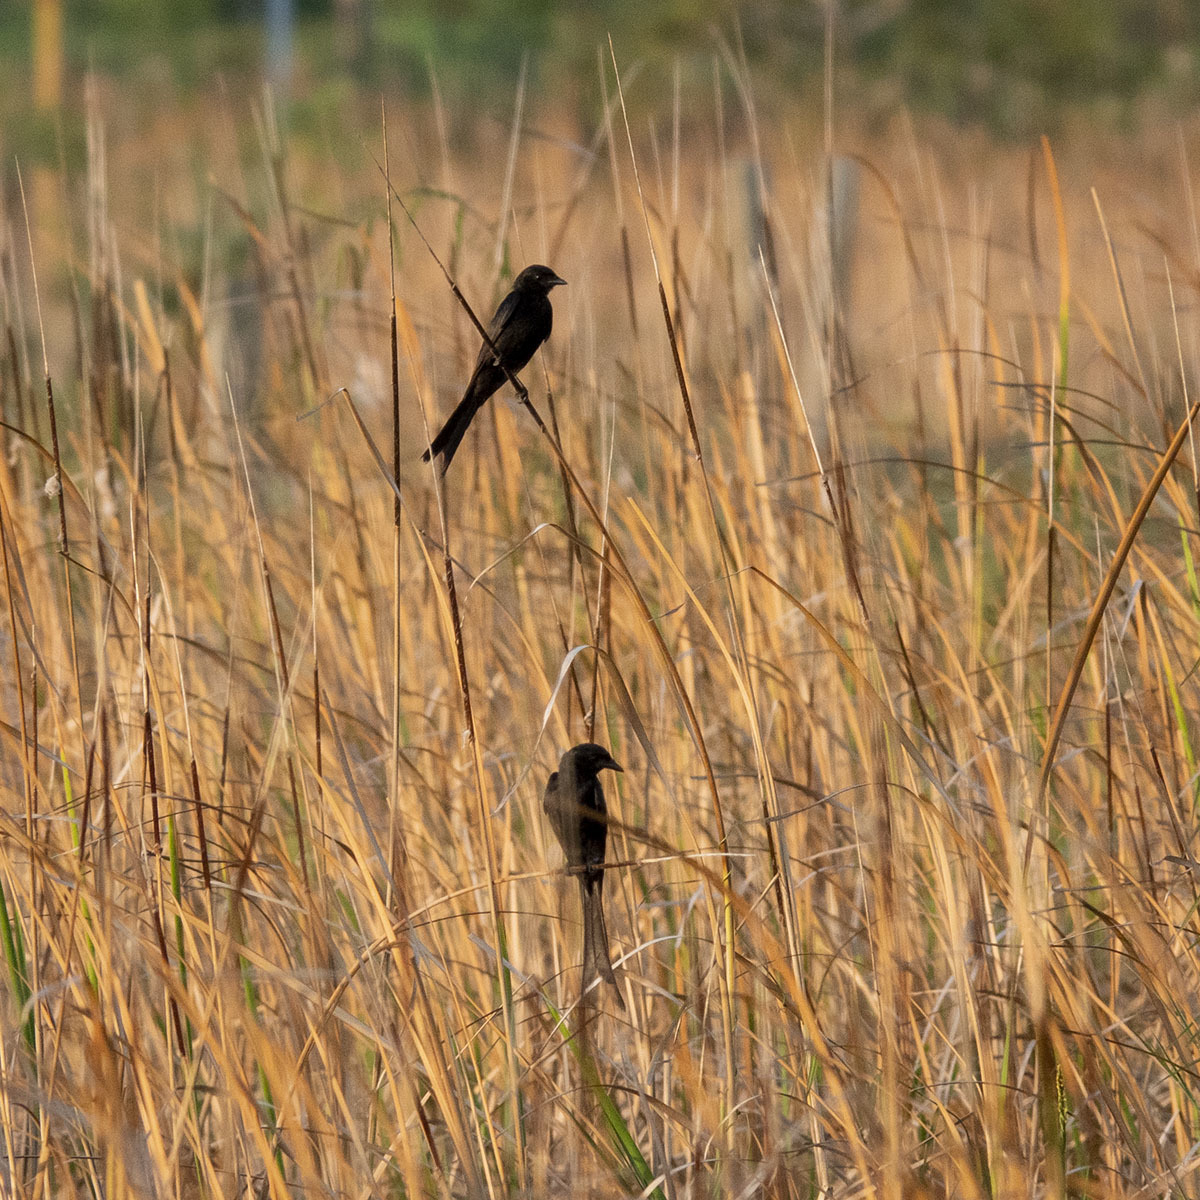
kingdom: Animalia
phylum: Chordata
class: Aves
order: Passeriformes
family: Dicruridae
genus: Dicrurus
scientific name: Dicrurus macrocercus
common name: Black drongo
